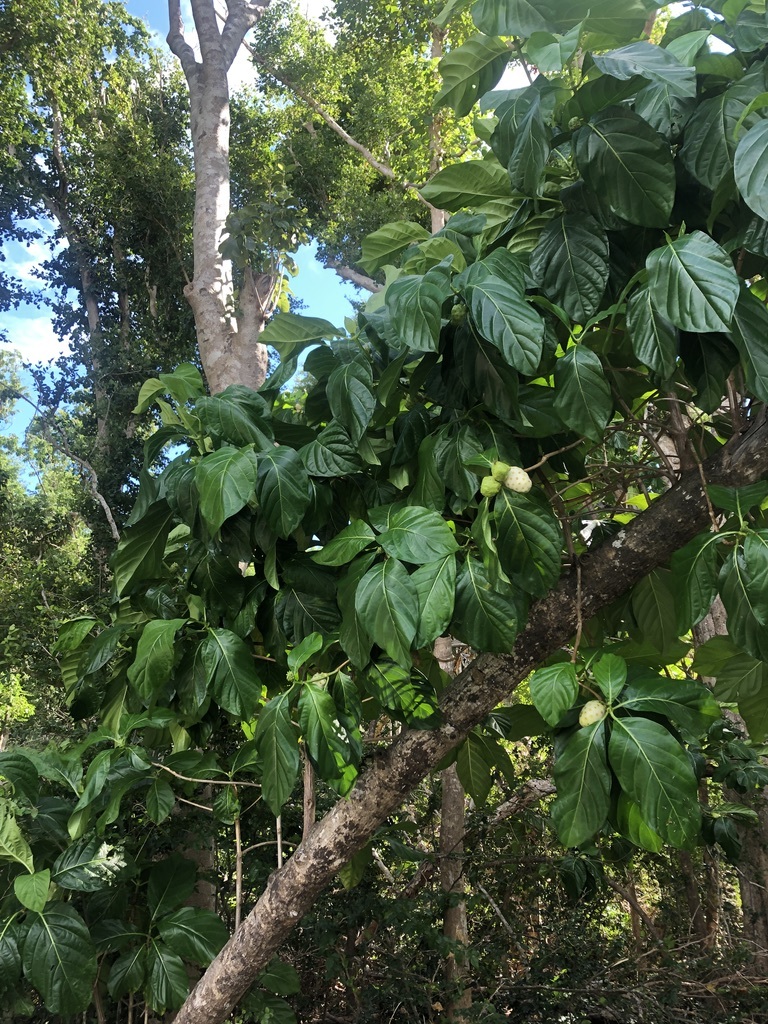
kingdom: Plantae
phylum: Tracheophyta
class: Magnoliopsida
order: Gentianales
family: Rubiaceae
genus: Morinda
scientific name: Morinda citrifolia
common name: Indian-mulberry
